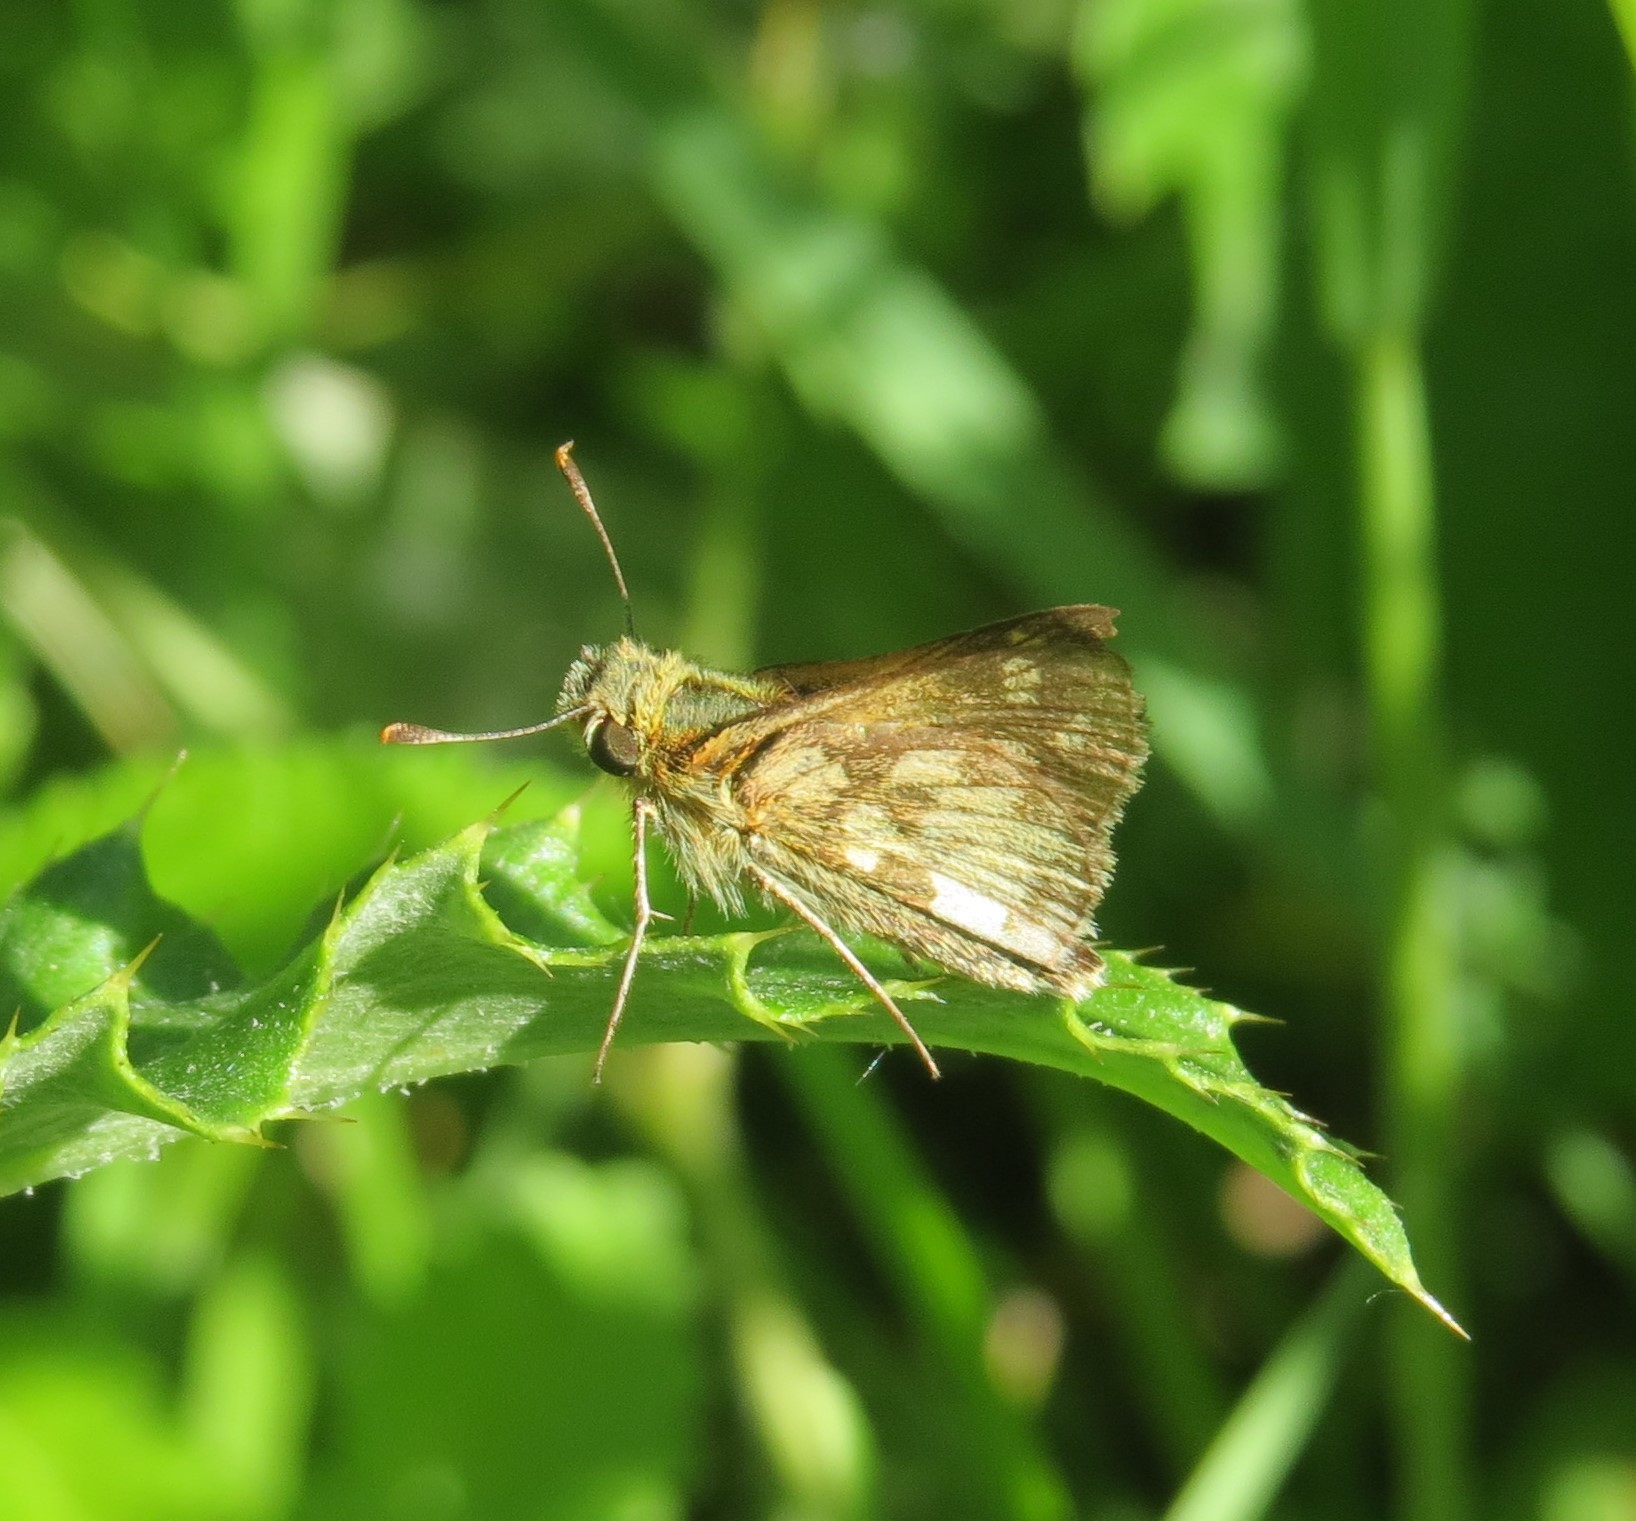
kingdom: Animalia
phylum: Arthropoda
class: Insecta
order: Lepidoptera
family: Hesperiidae
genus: Polites
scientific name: Polites coras
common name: Peck's skipper
